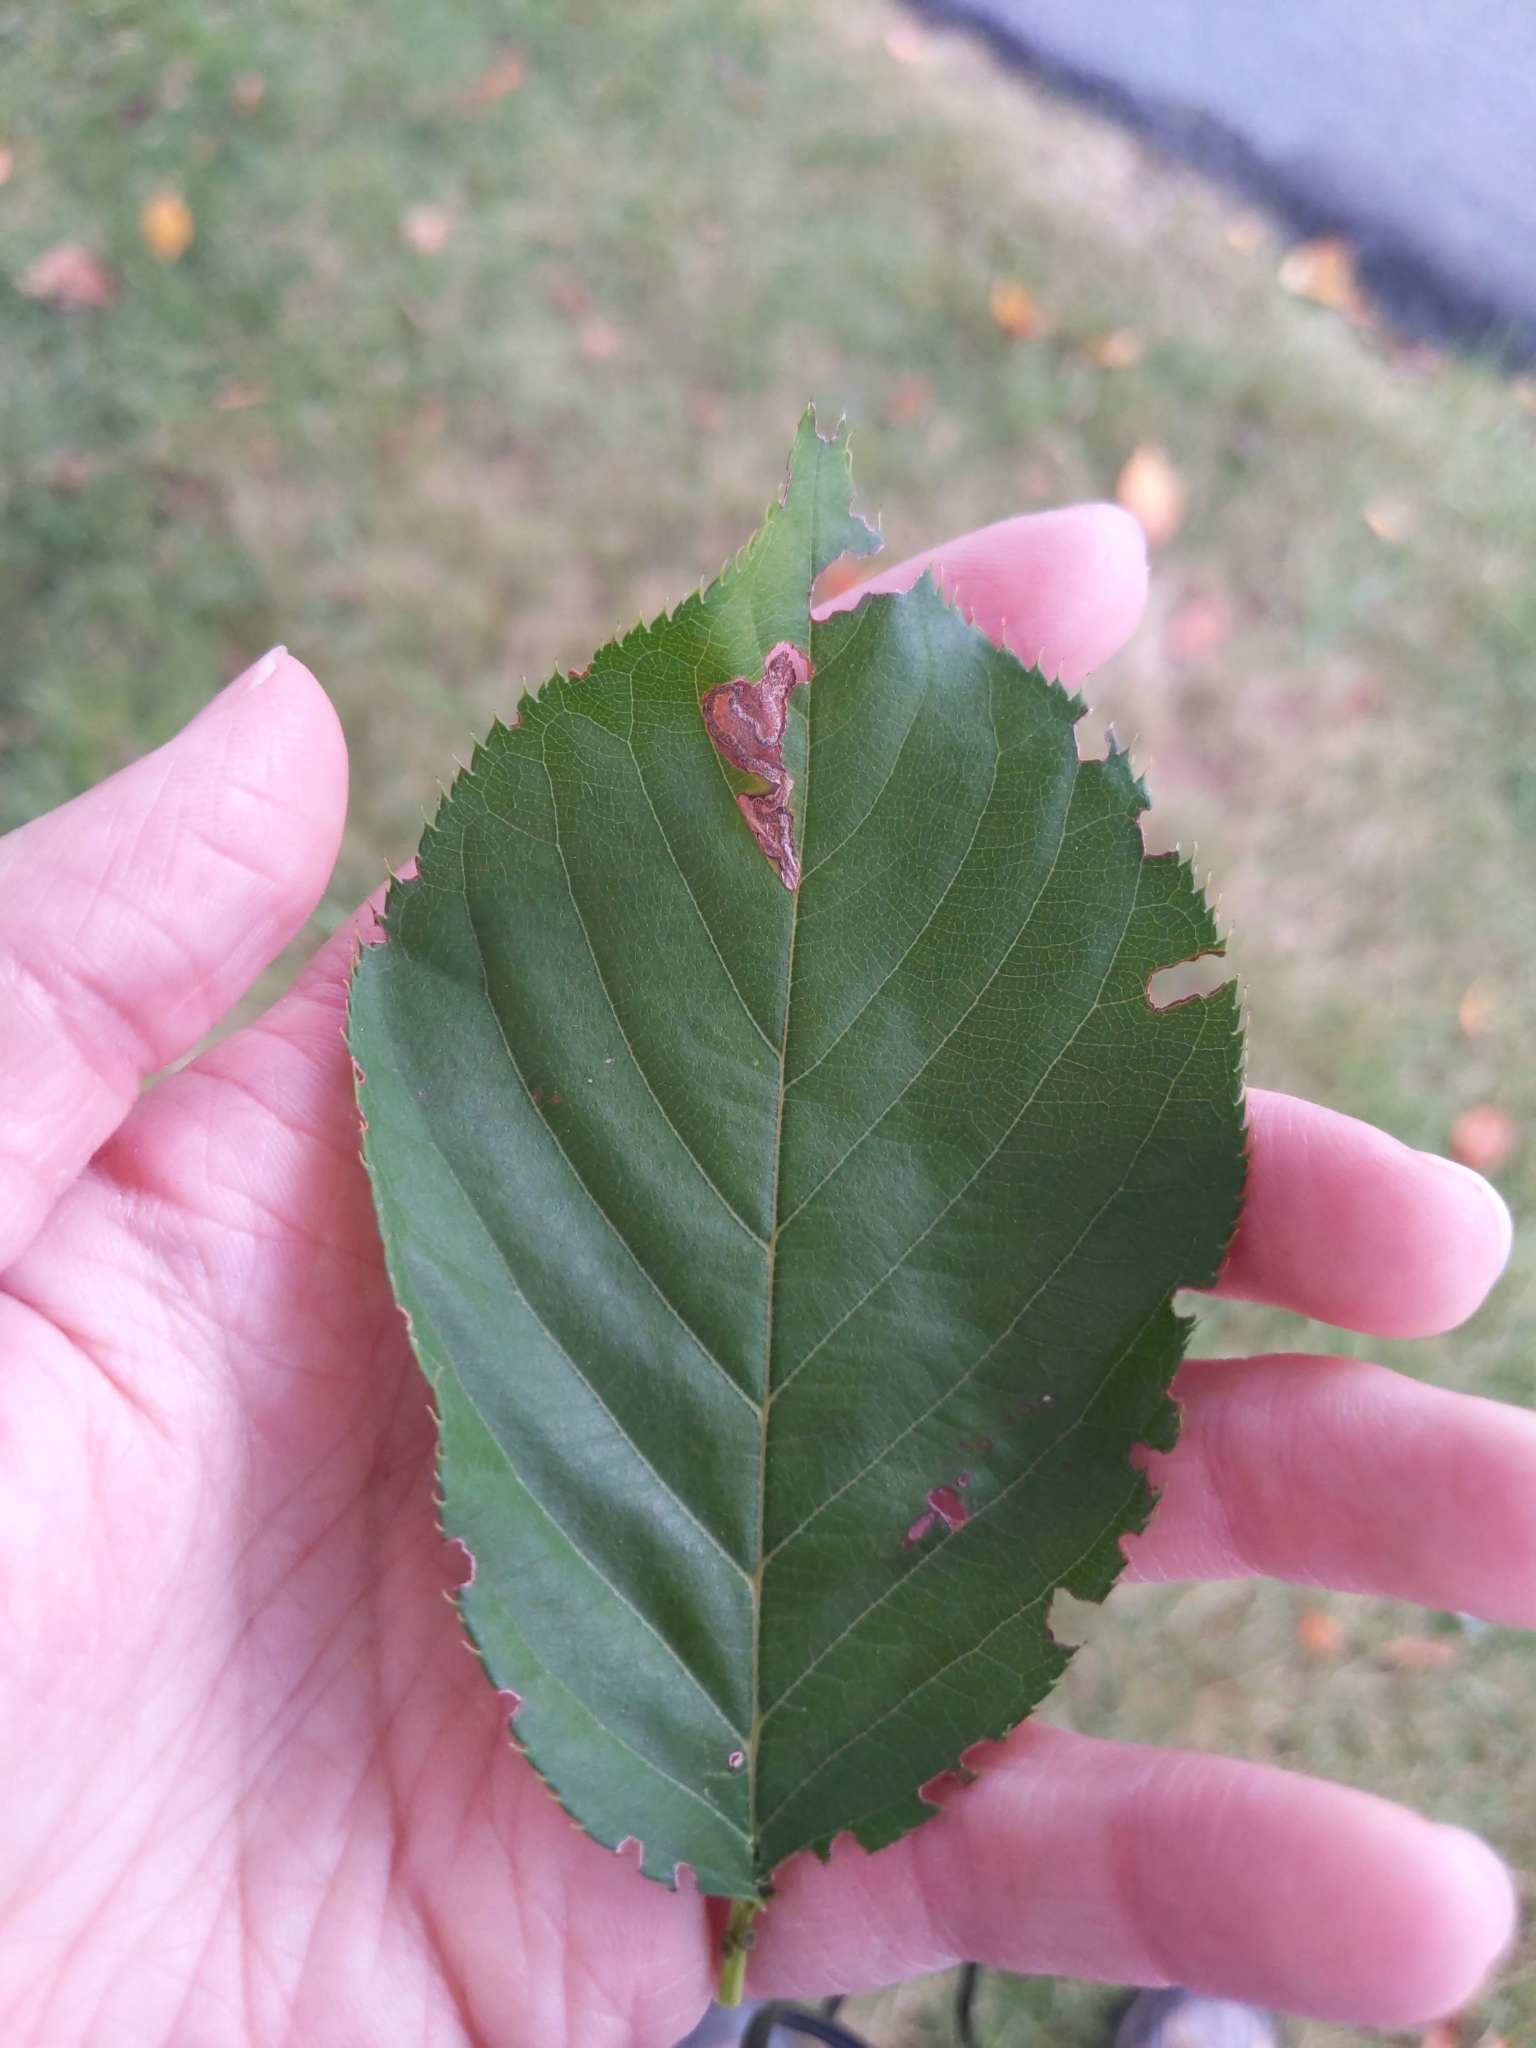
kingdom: Animalia
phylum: Arthropoda
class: Insecta
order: Lepidoptera
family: Nepticulidae
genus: Stigmella
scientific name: Stigmella prunifoliella
